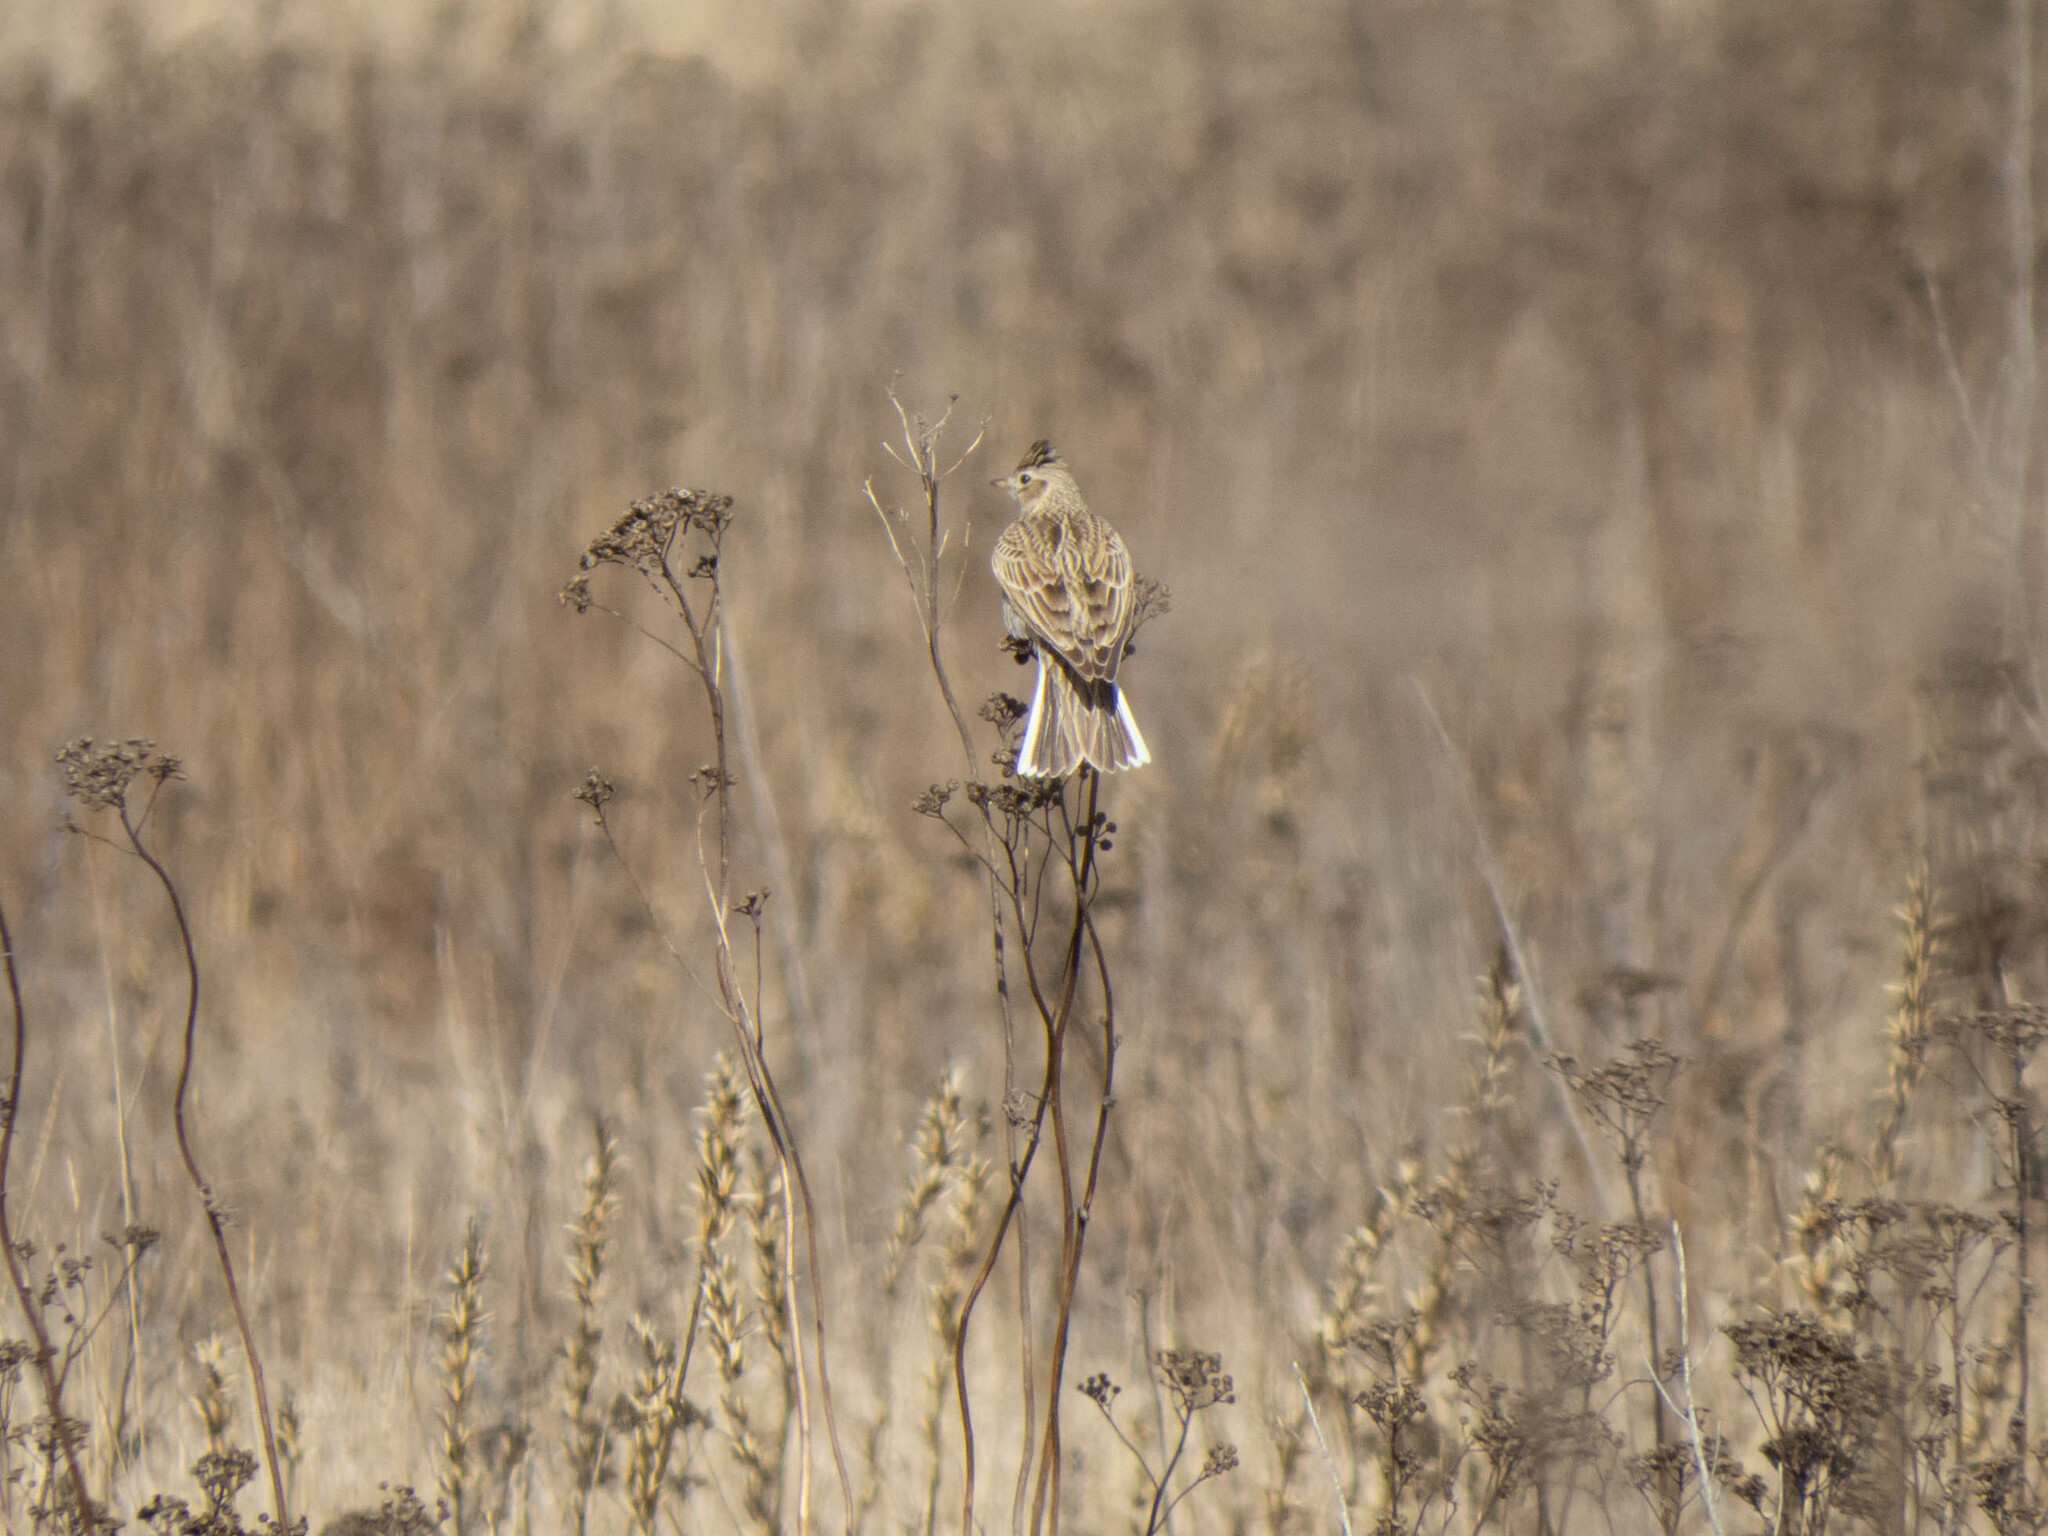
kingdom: Animalia
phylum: Chordata
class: Aves
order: Passeriformes
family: Alaudidae
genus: Alauda
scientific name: Alauda arvensis
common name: Eurasian skylark
